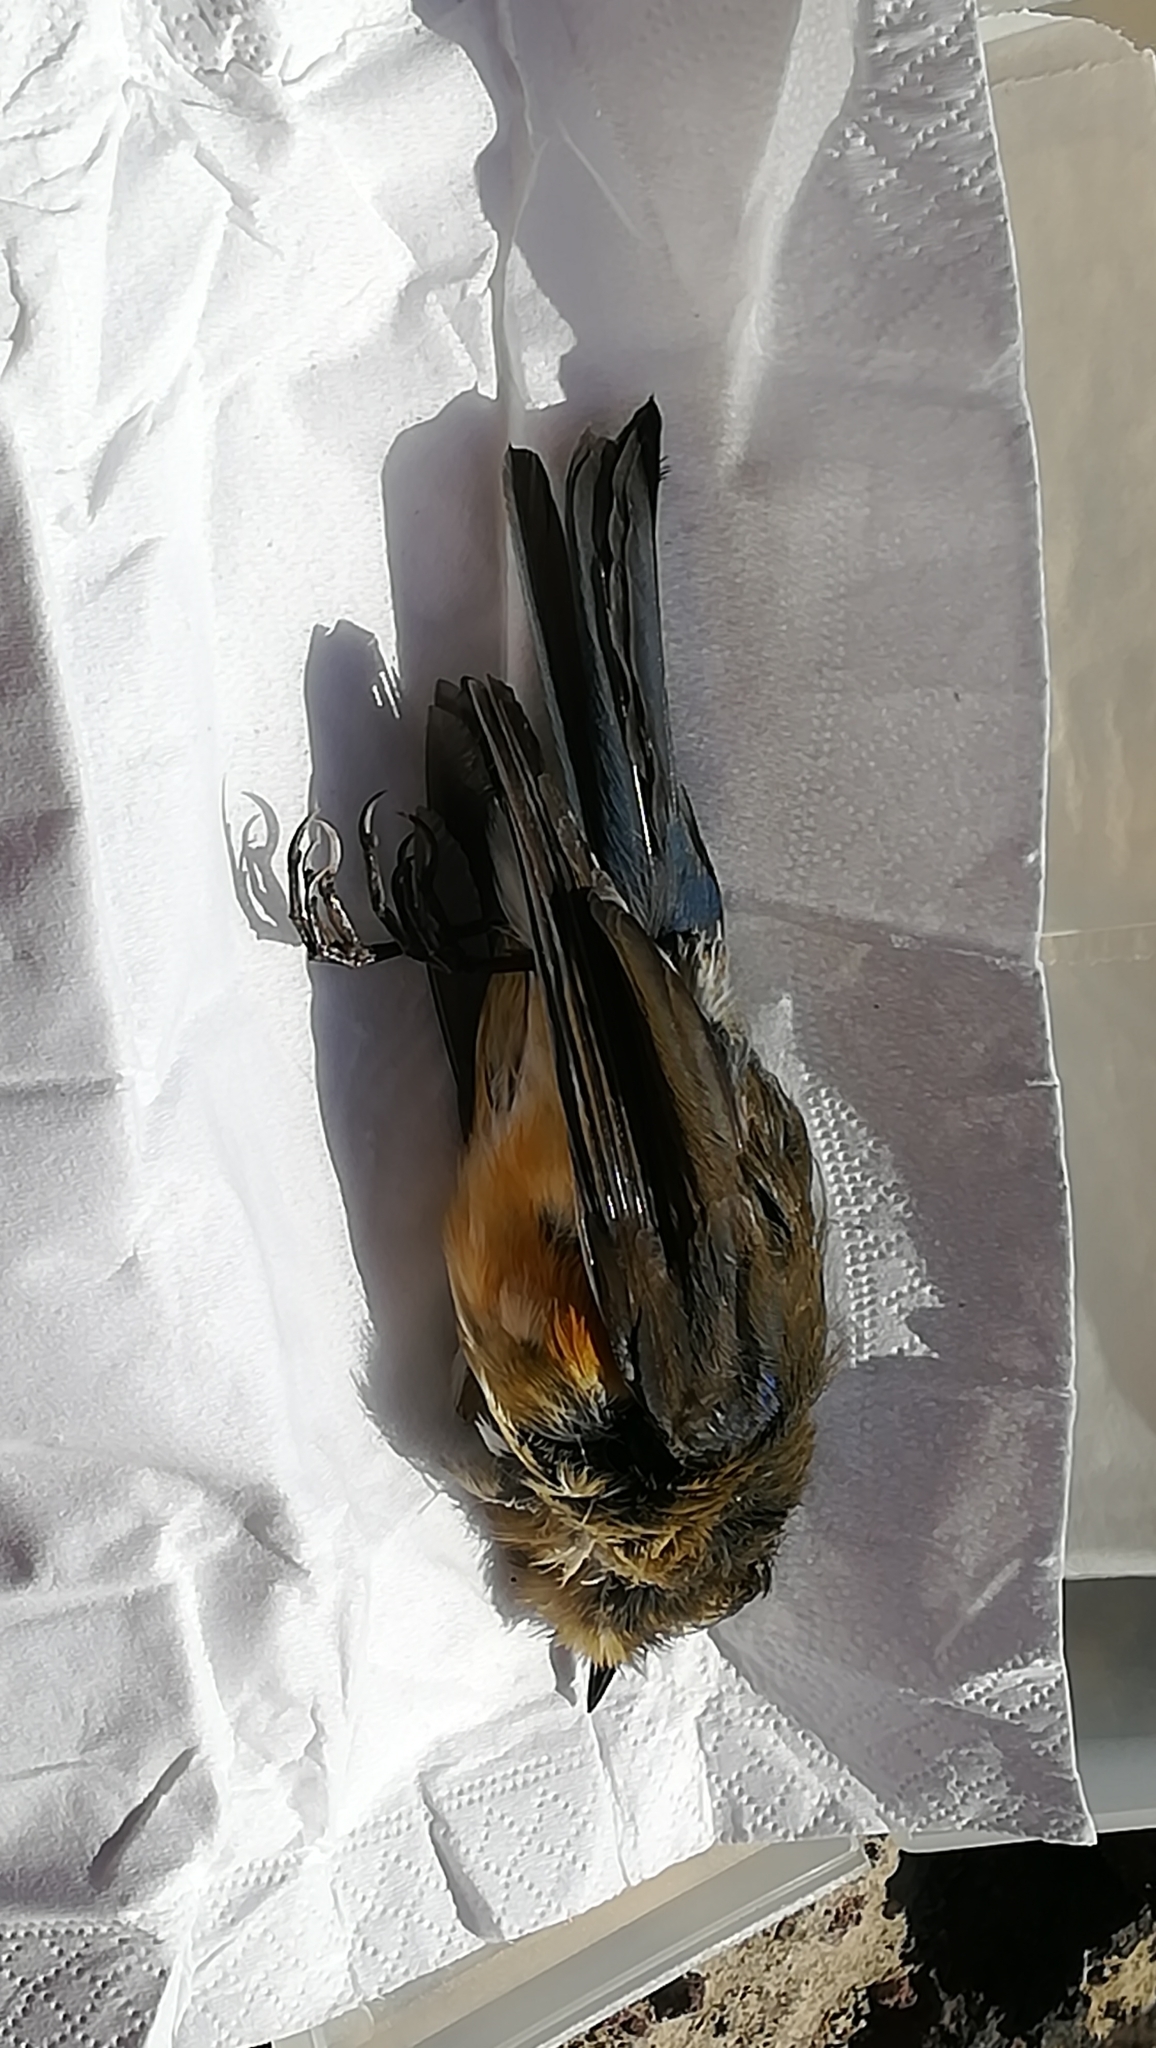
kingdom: Animalia
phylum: Chordata
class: Aves
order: Passeriformes
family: Muscicapidae
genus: Tarsiger
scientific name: Tarsiger cyanurus
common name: Red-flanked bluetail
